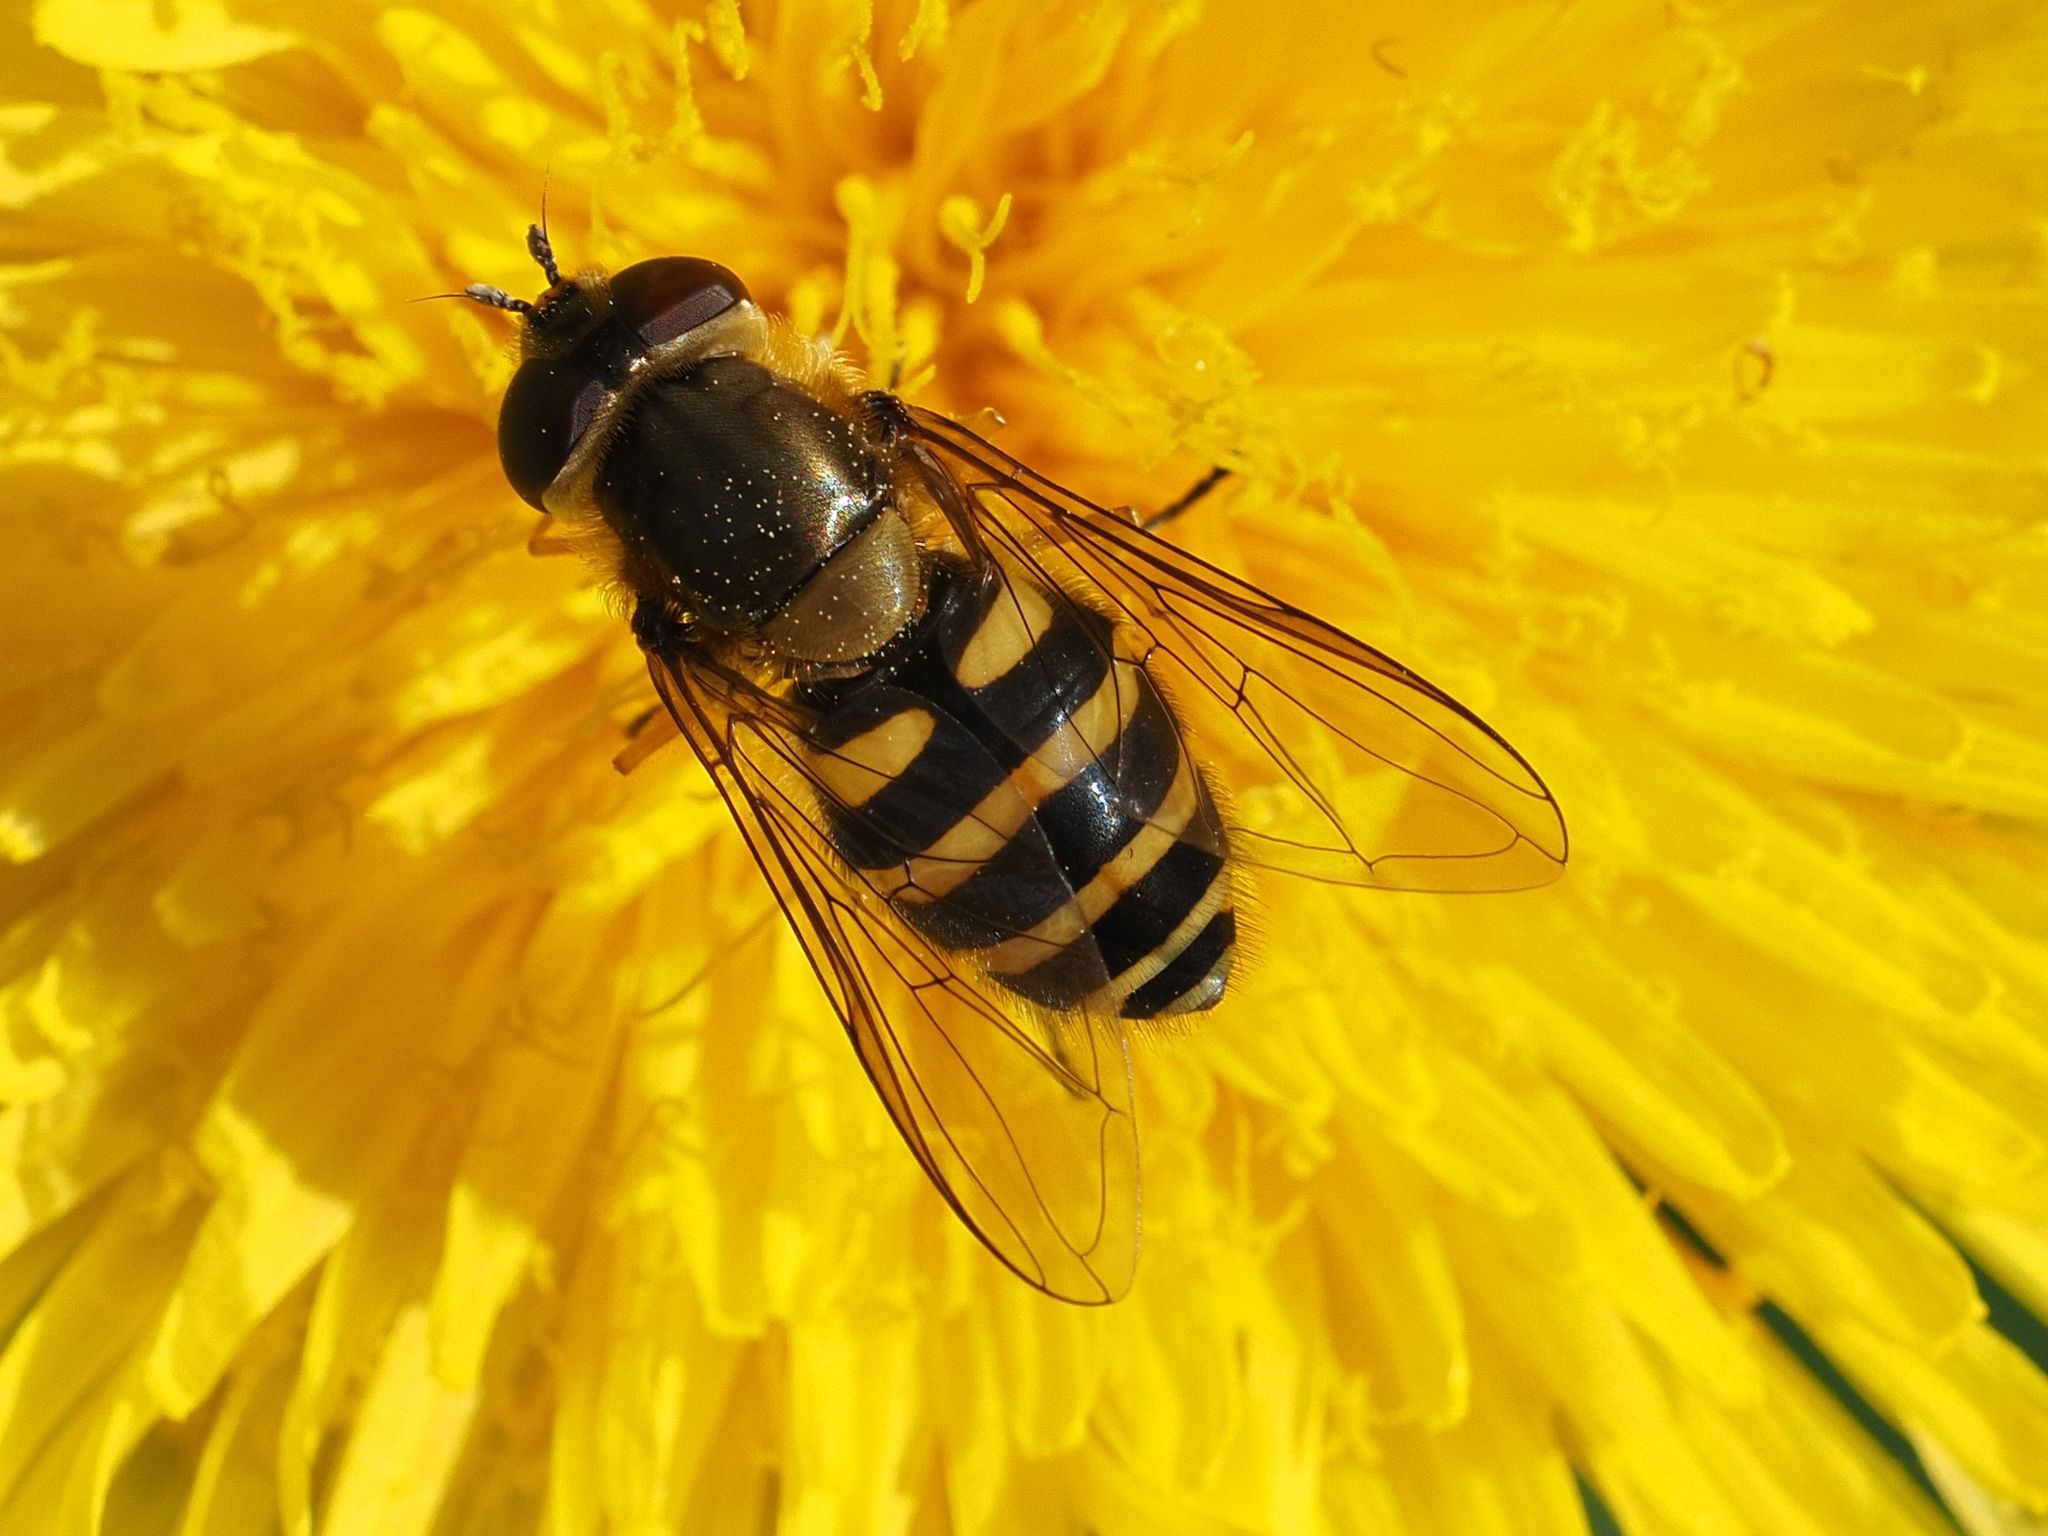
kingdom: Animalia
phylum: Arthropoda
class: Insecta
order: Diptera
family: Syrphidae
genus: Syrphus
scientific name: Syrphus
